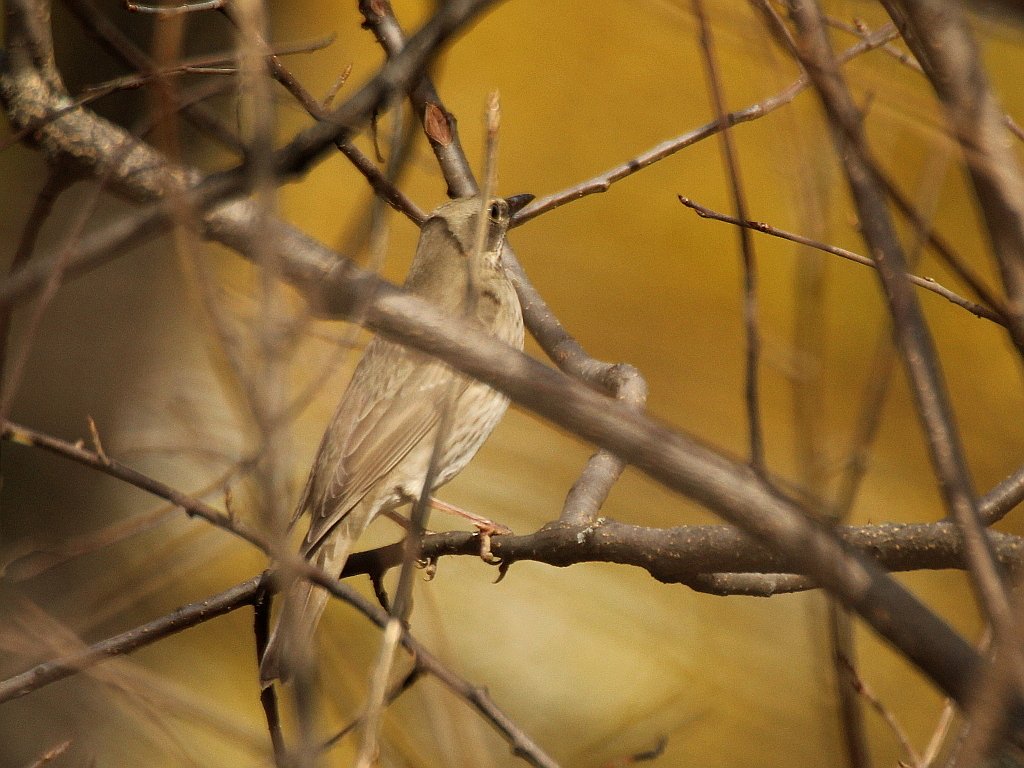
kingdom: Animalia
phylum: Chordata
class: Aves
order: Passeriformes
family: Turdidae
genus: Turdus
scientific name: Turdus atrogularis
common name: Black-throated thrush
